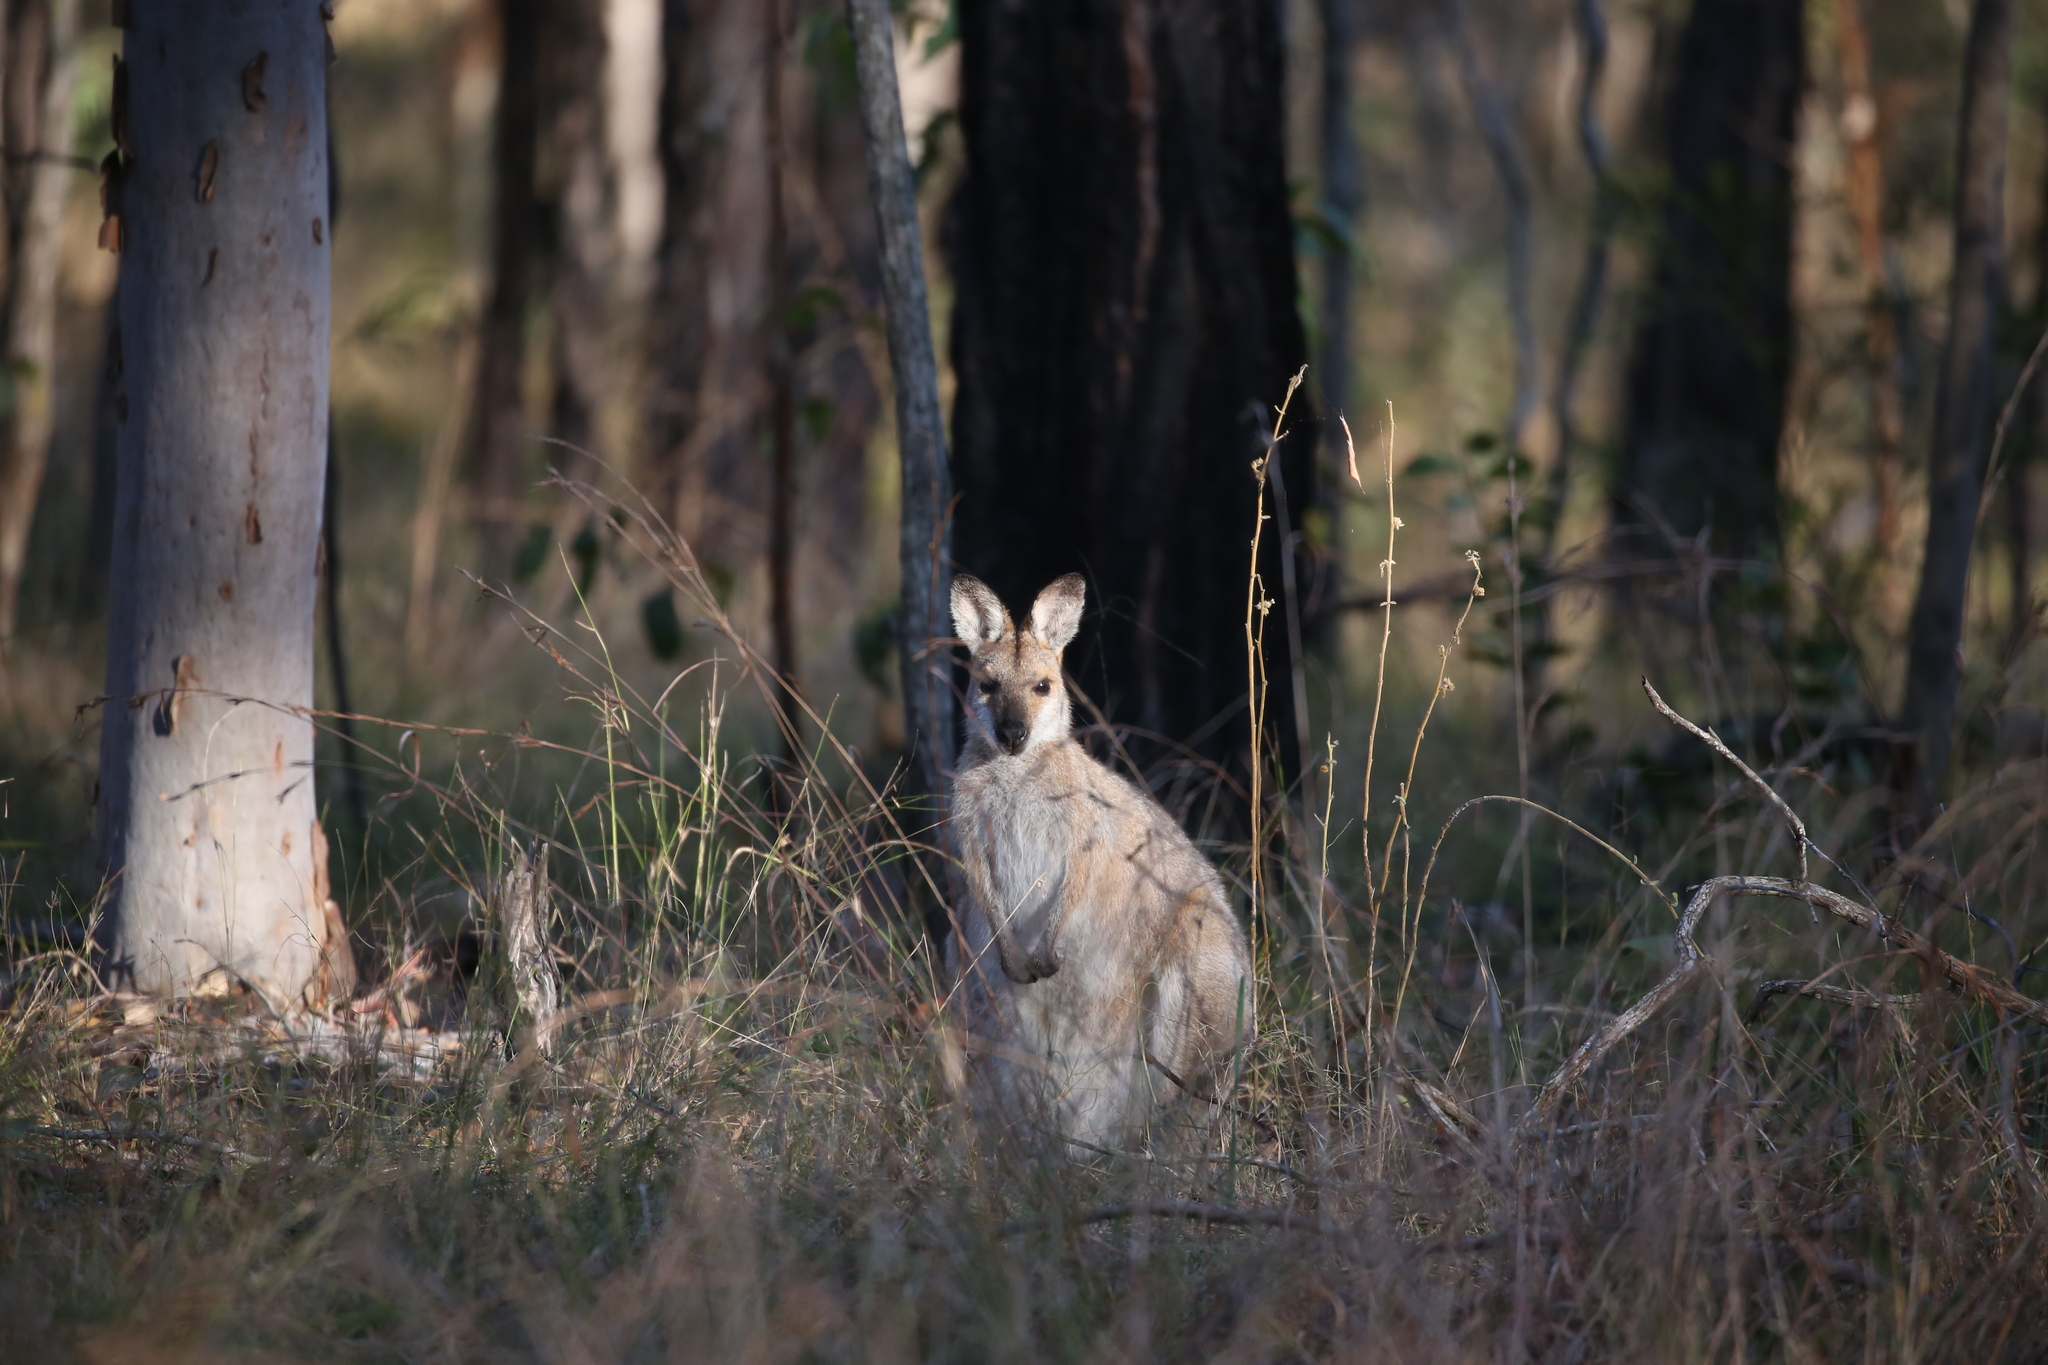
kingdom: Animalia
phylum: Chordata
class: Mammalia
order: Diprotodontia
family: Macropodidae
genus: Notamacropus
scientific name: Notamacropus rufogriseus
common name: Red-necked wallaby
